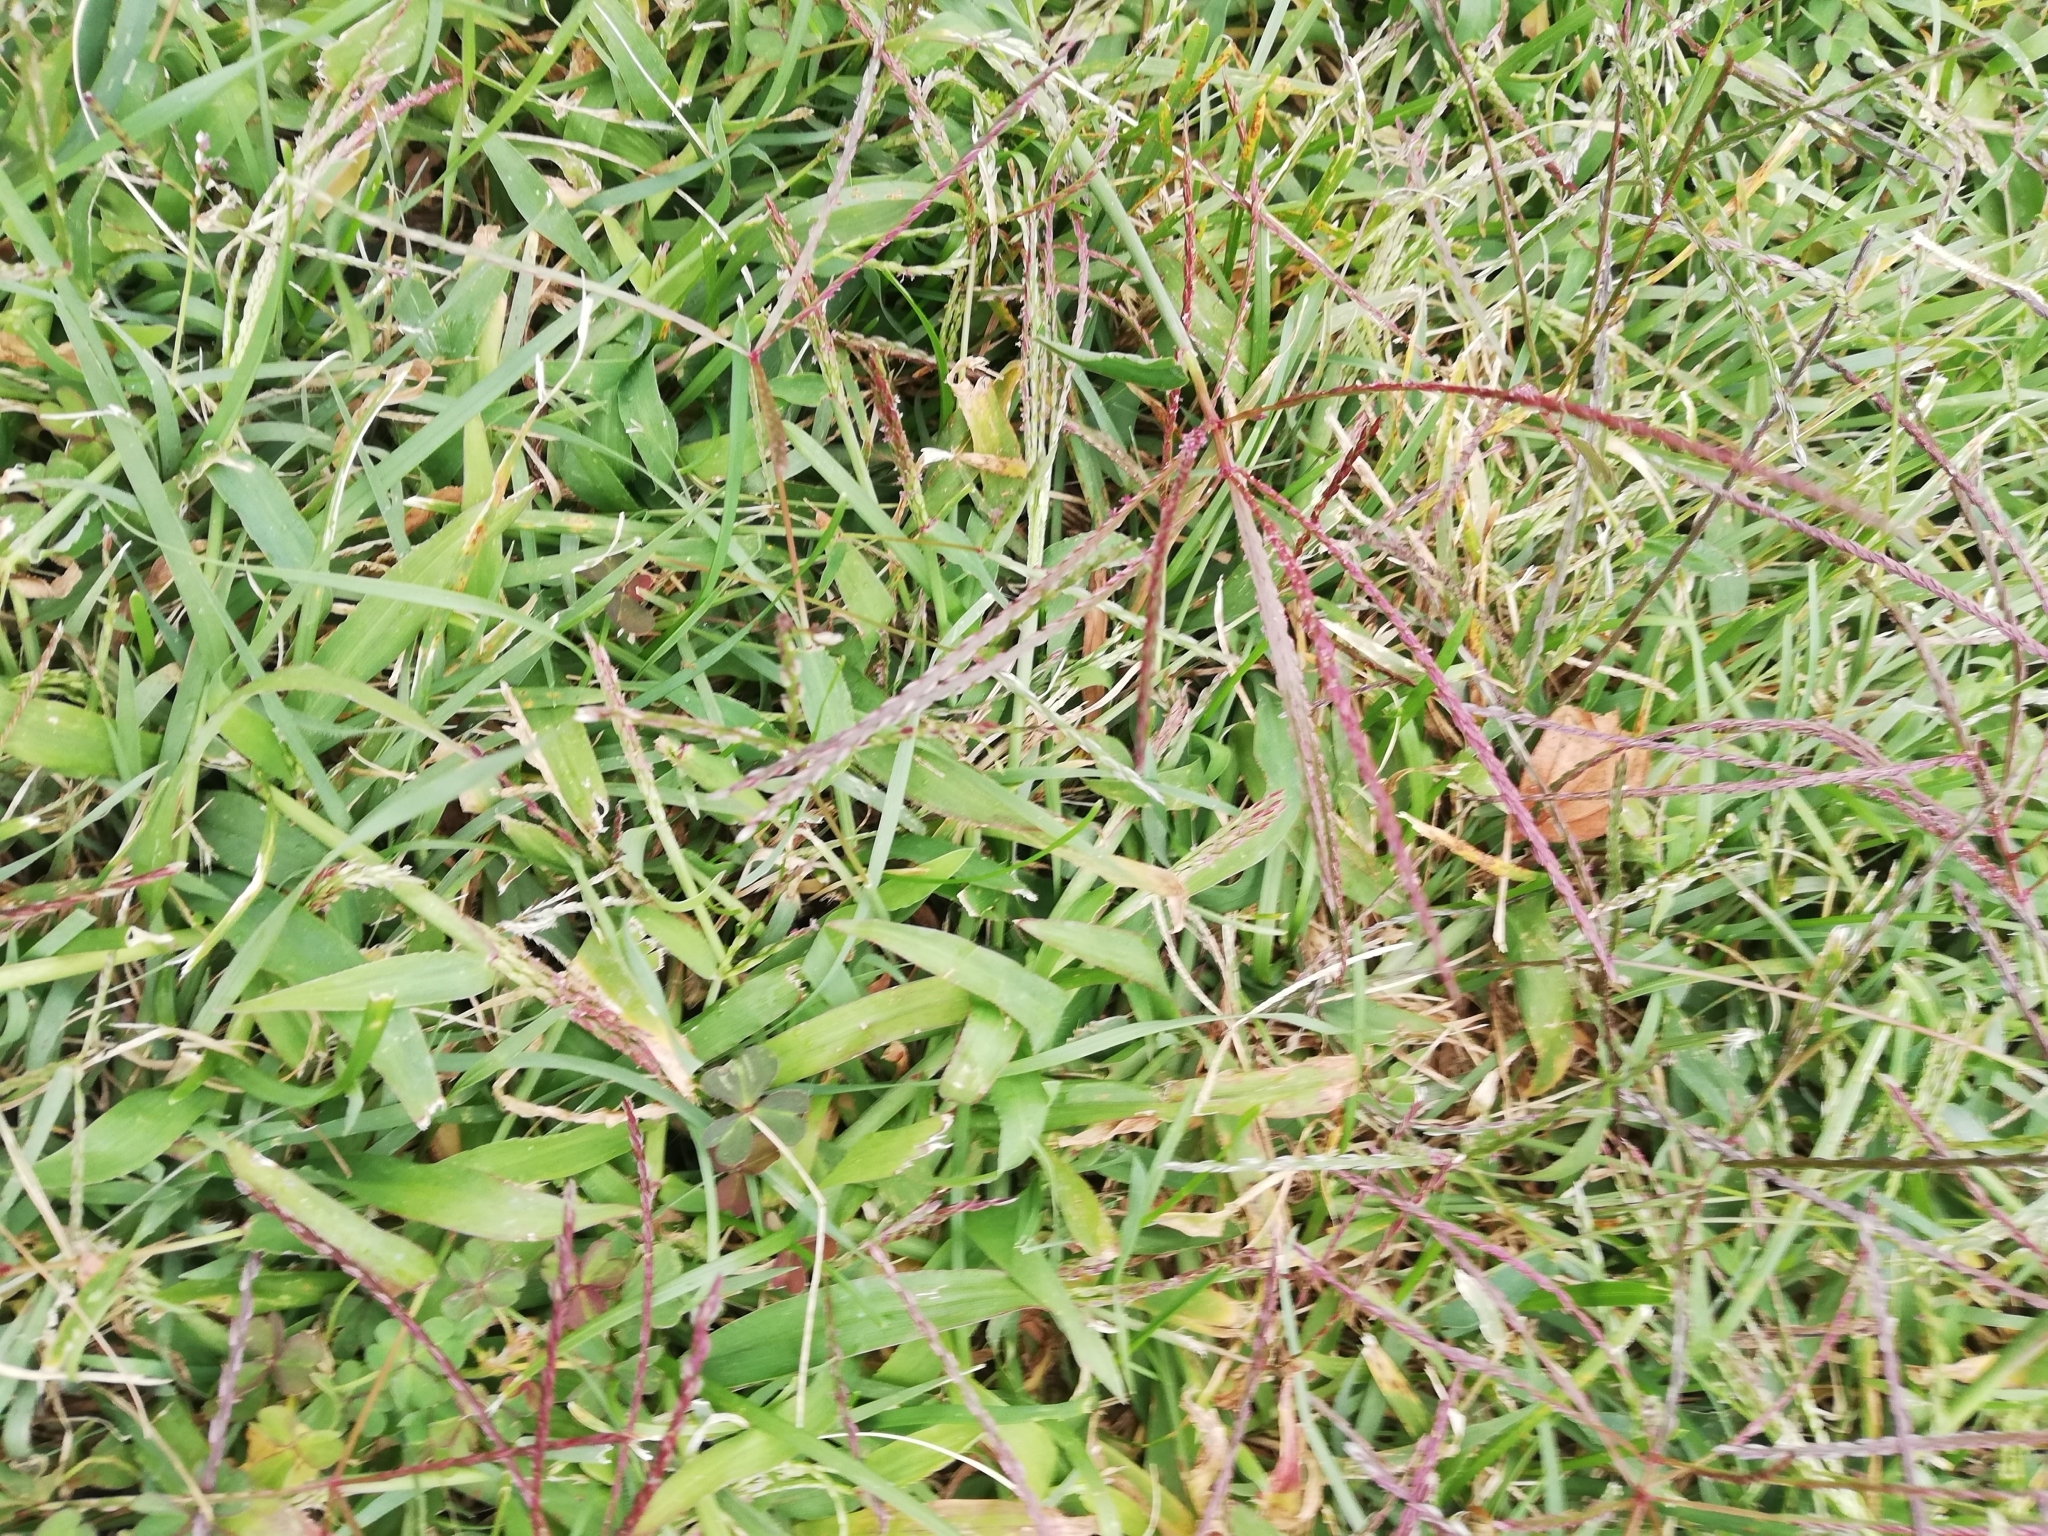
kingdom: Plantae
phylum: Tracheophyta
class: Liliopsida
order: Poales
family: Poaceae
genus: Digitaria
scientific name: Digitaria sanguinalis
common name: Hairy crabgrass
